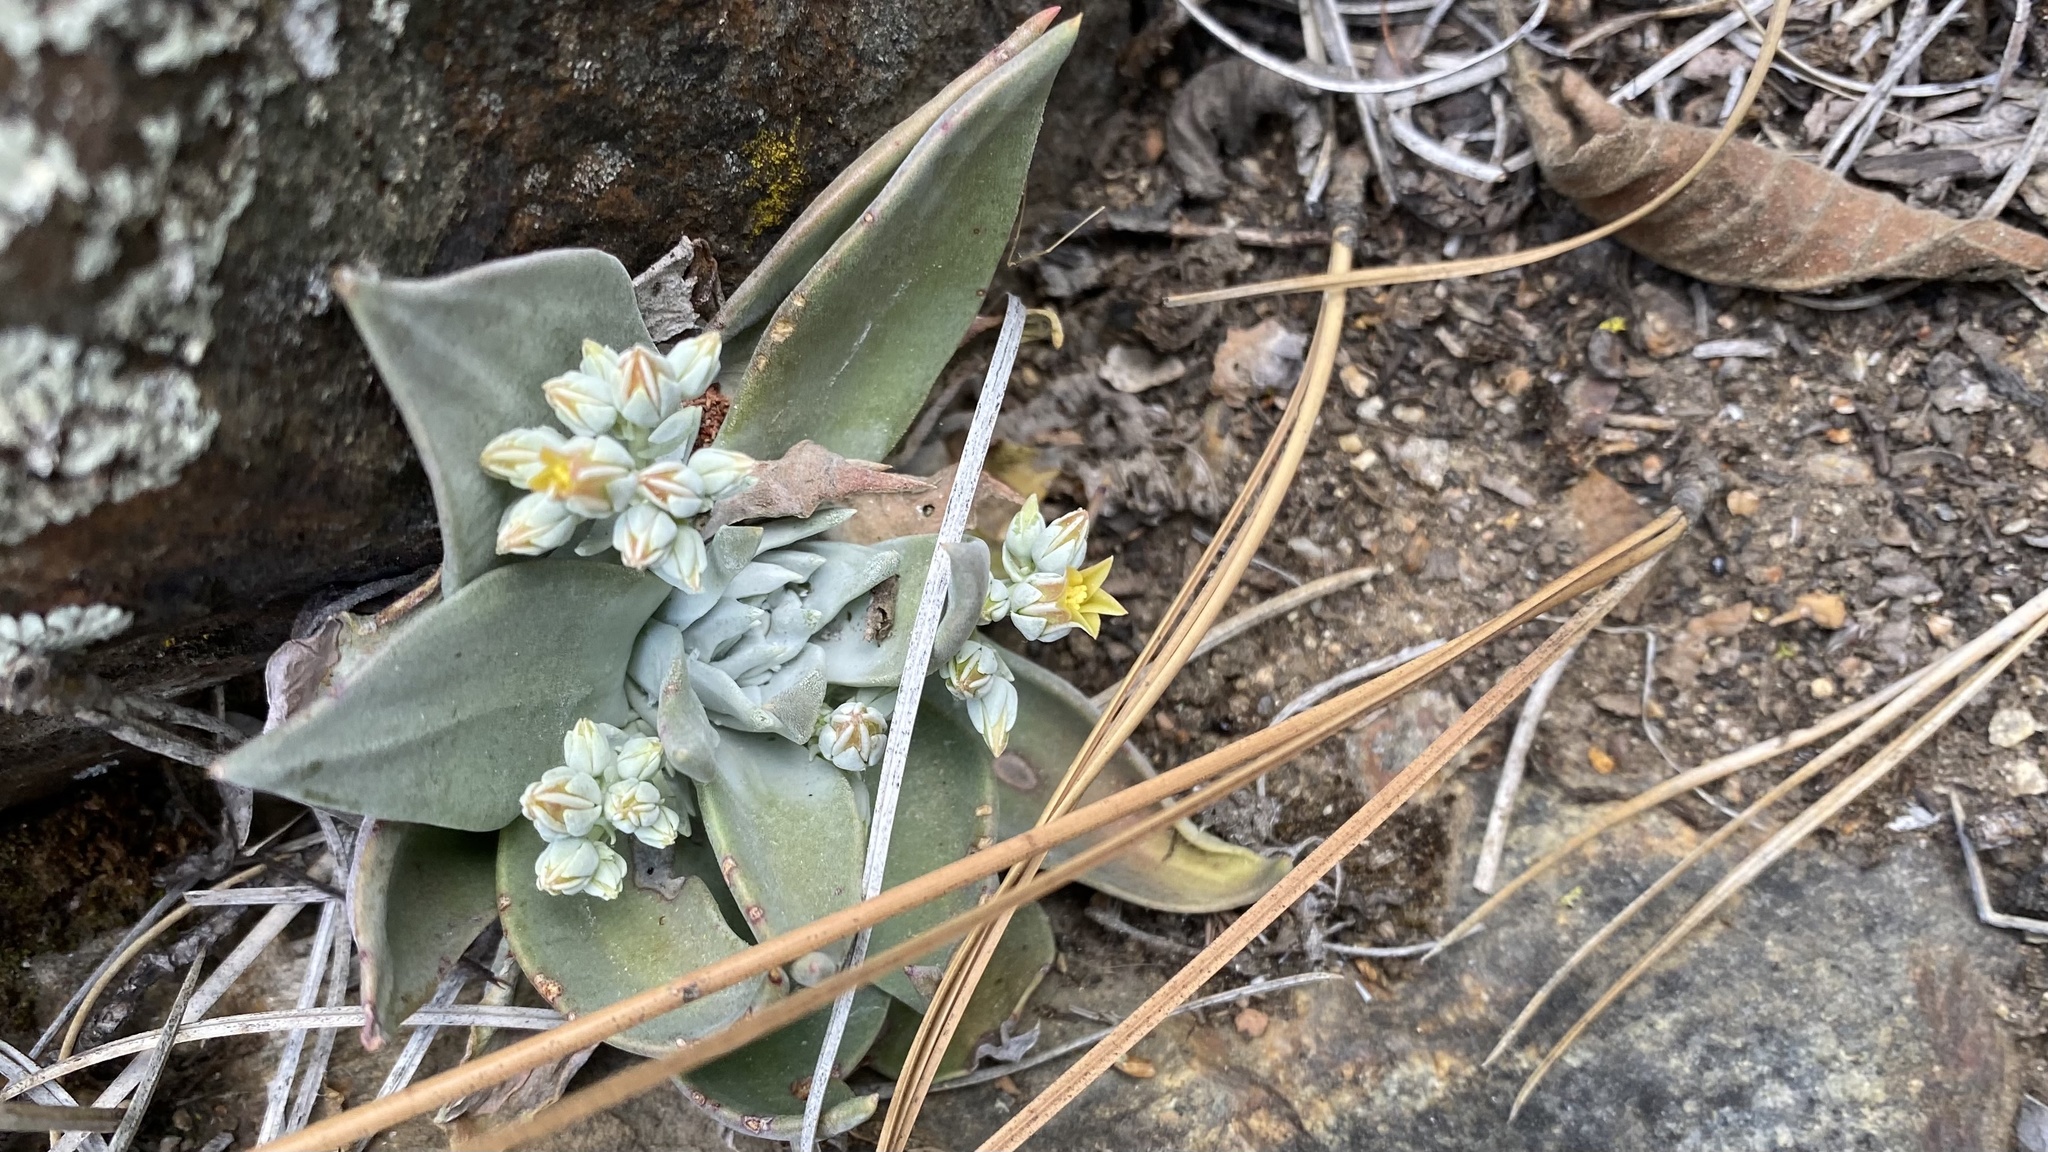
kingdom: Plantae
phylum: Tracheophyta
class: Magnoliopsida
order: Saxifragales
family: Crassulaceae
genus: Dudleya
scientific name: Dudleya abramsii
